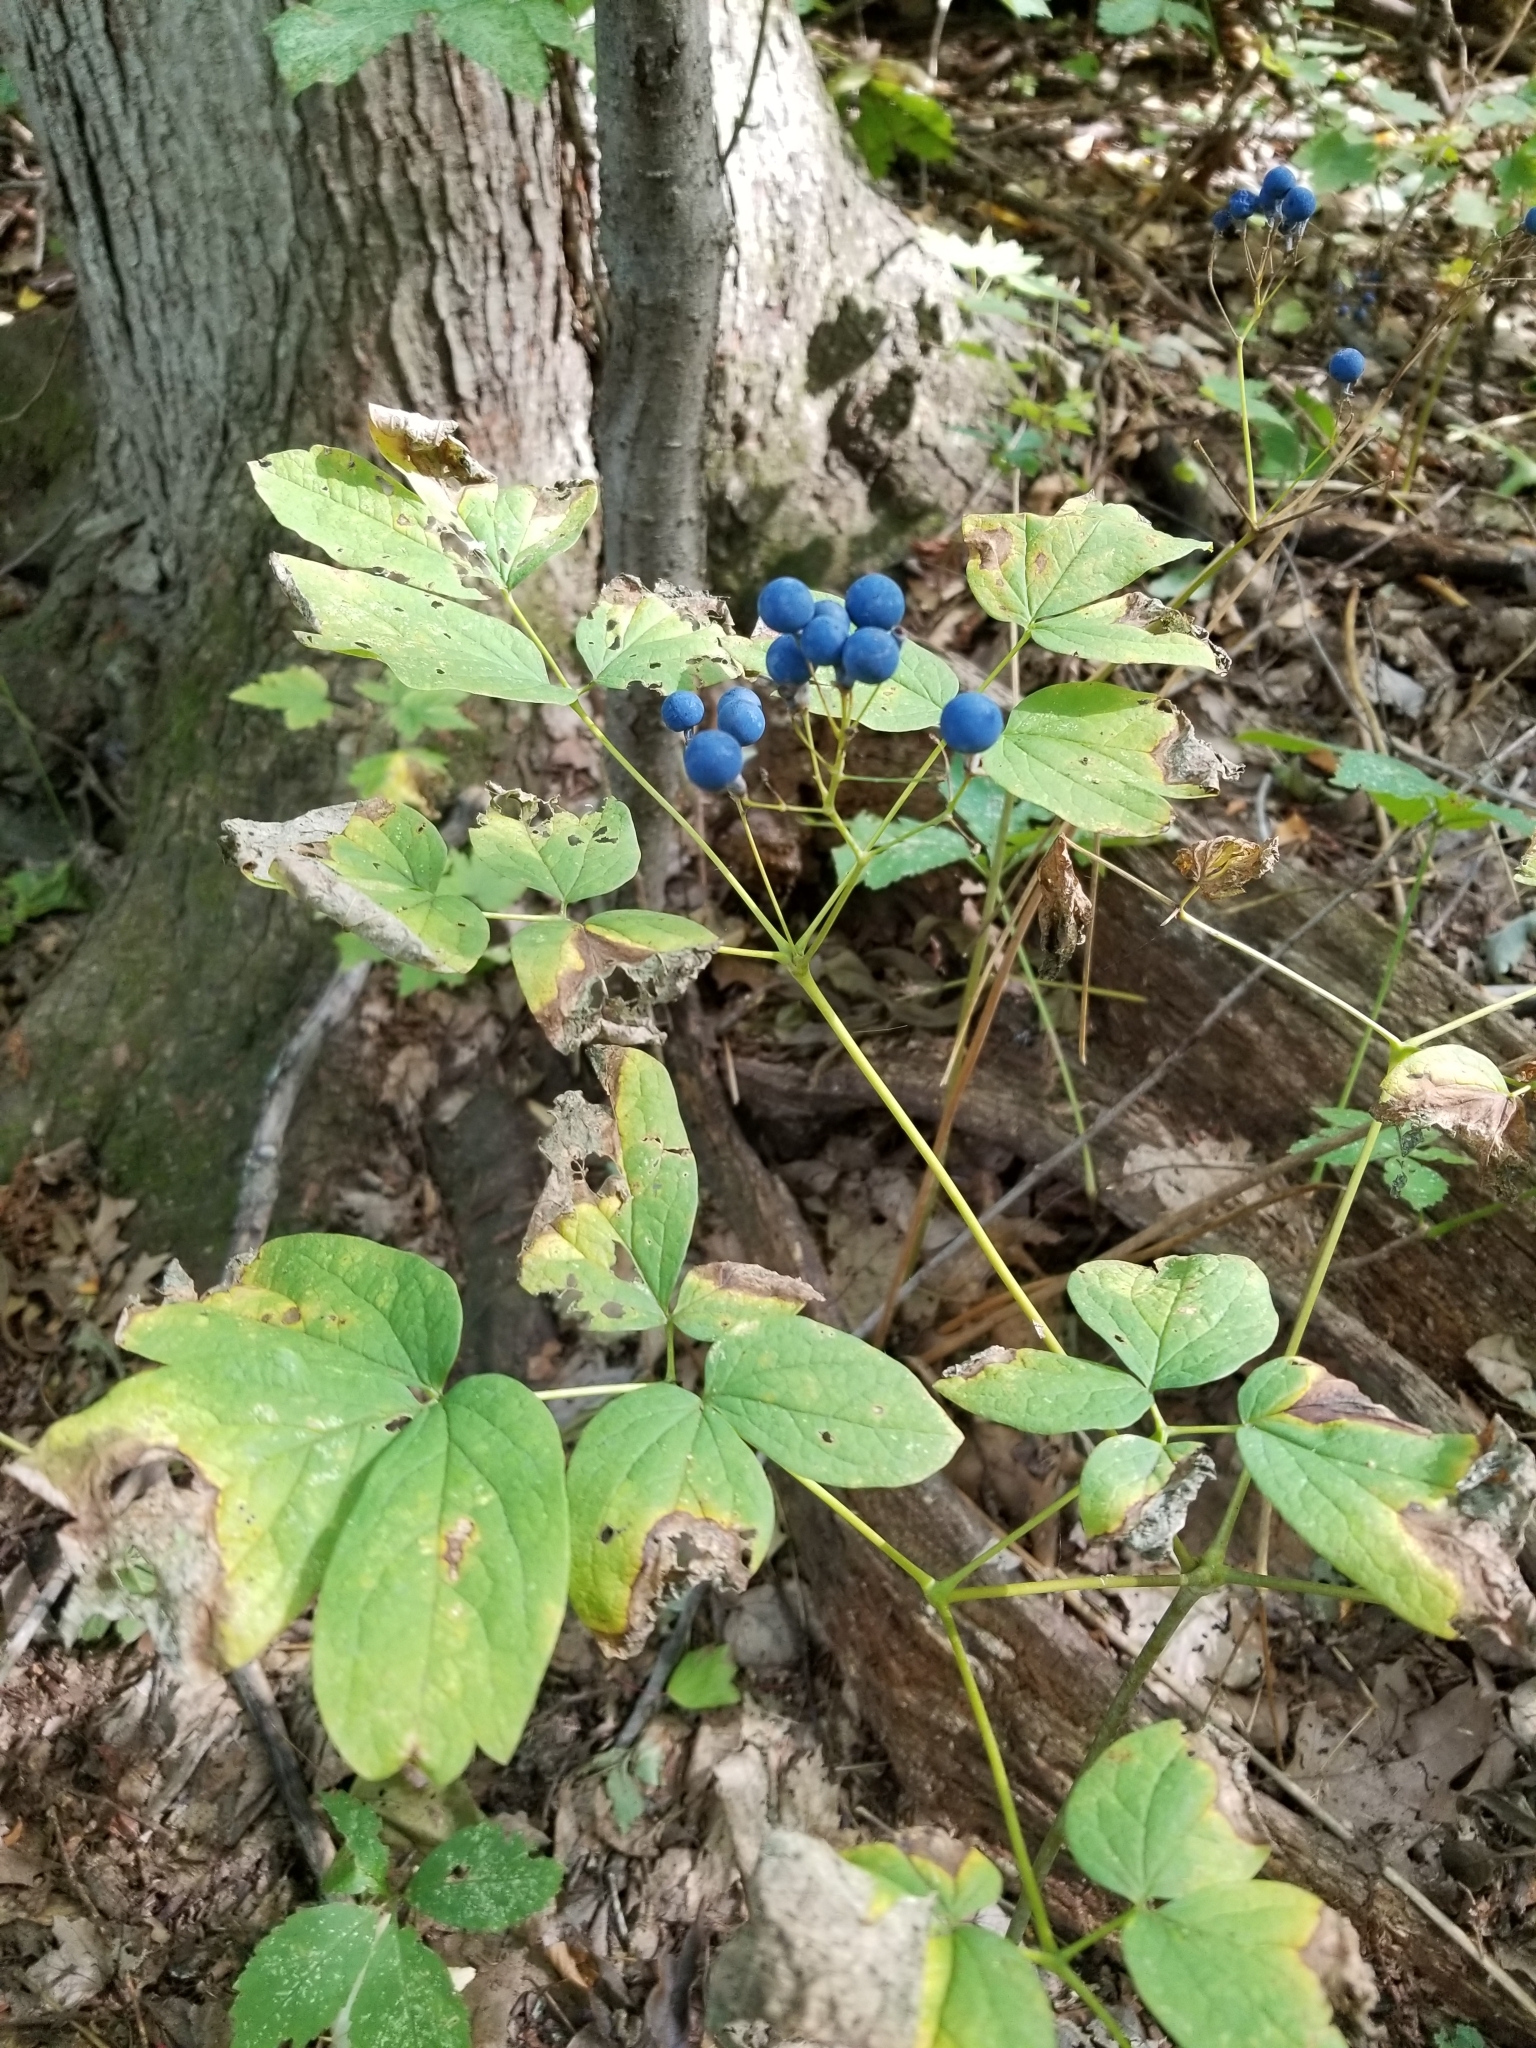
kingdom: Plantae
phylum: Tracheophyta
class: Magnoliopsida
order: Ranunculales
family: Berberidaceae
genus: Caulophyllum
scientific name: Caulophyllum thalictroides
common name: Blue cohosh
